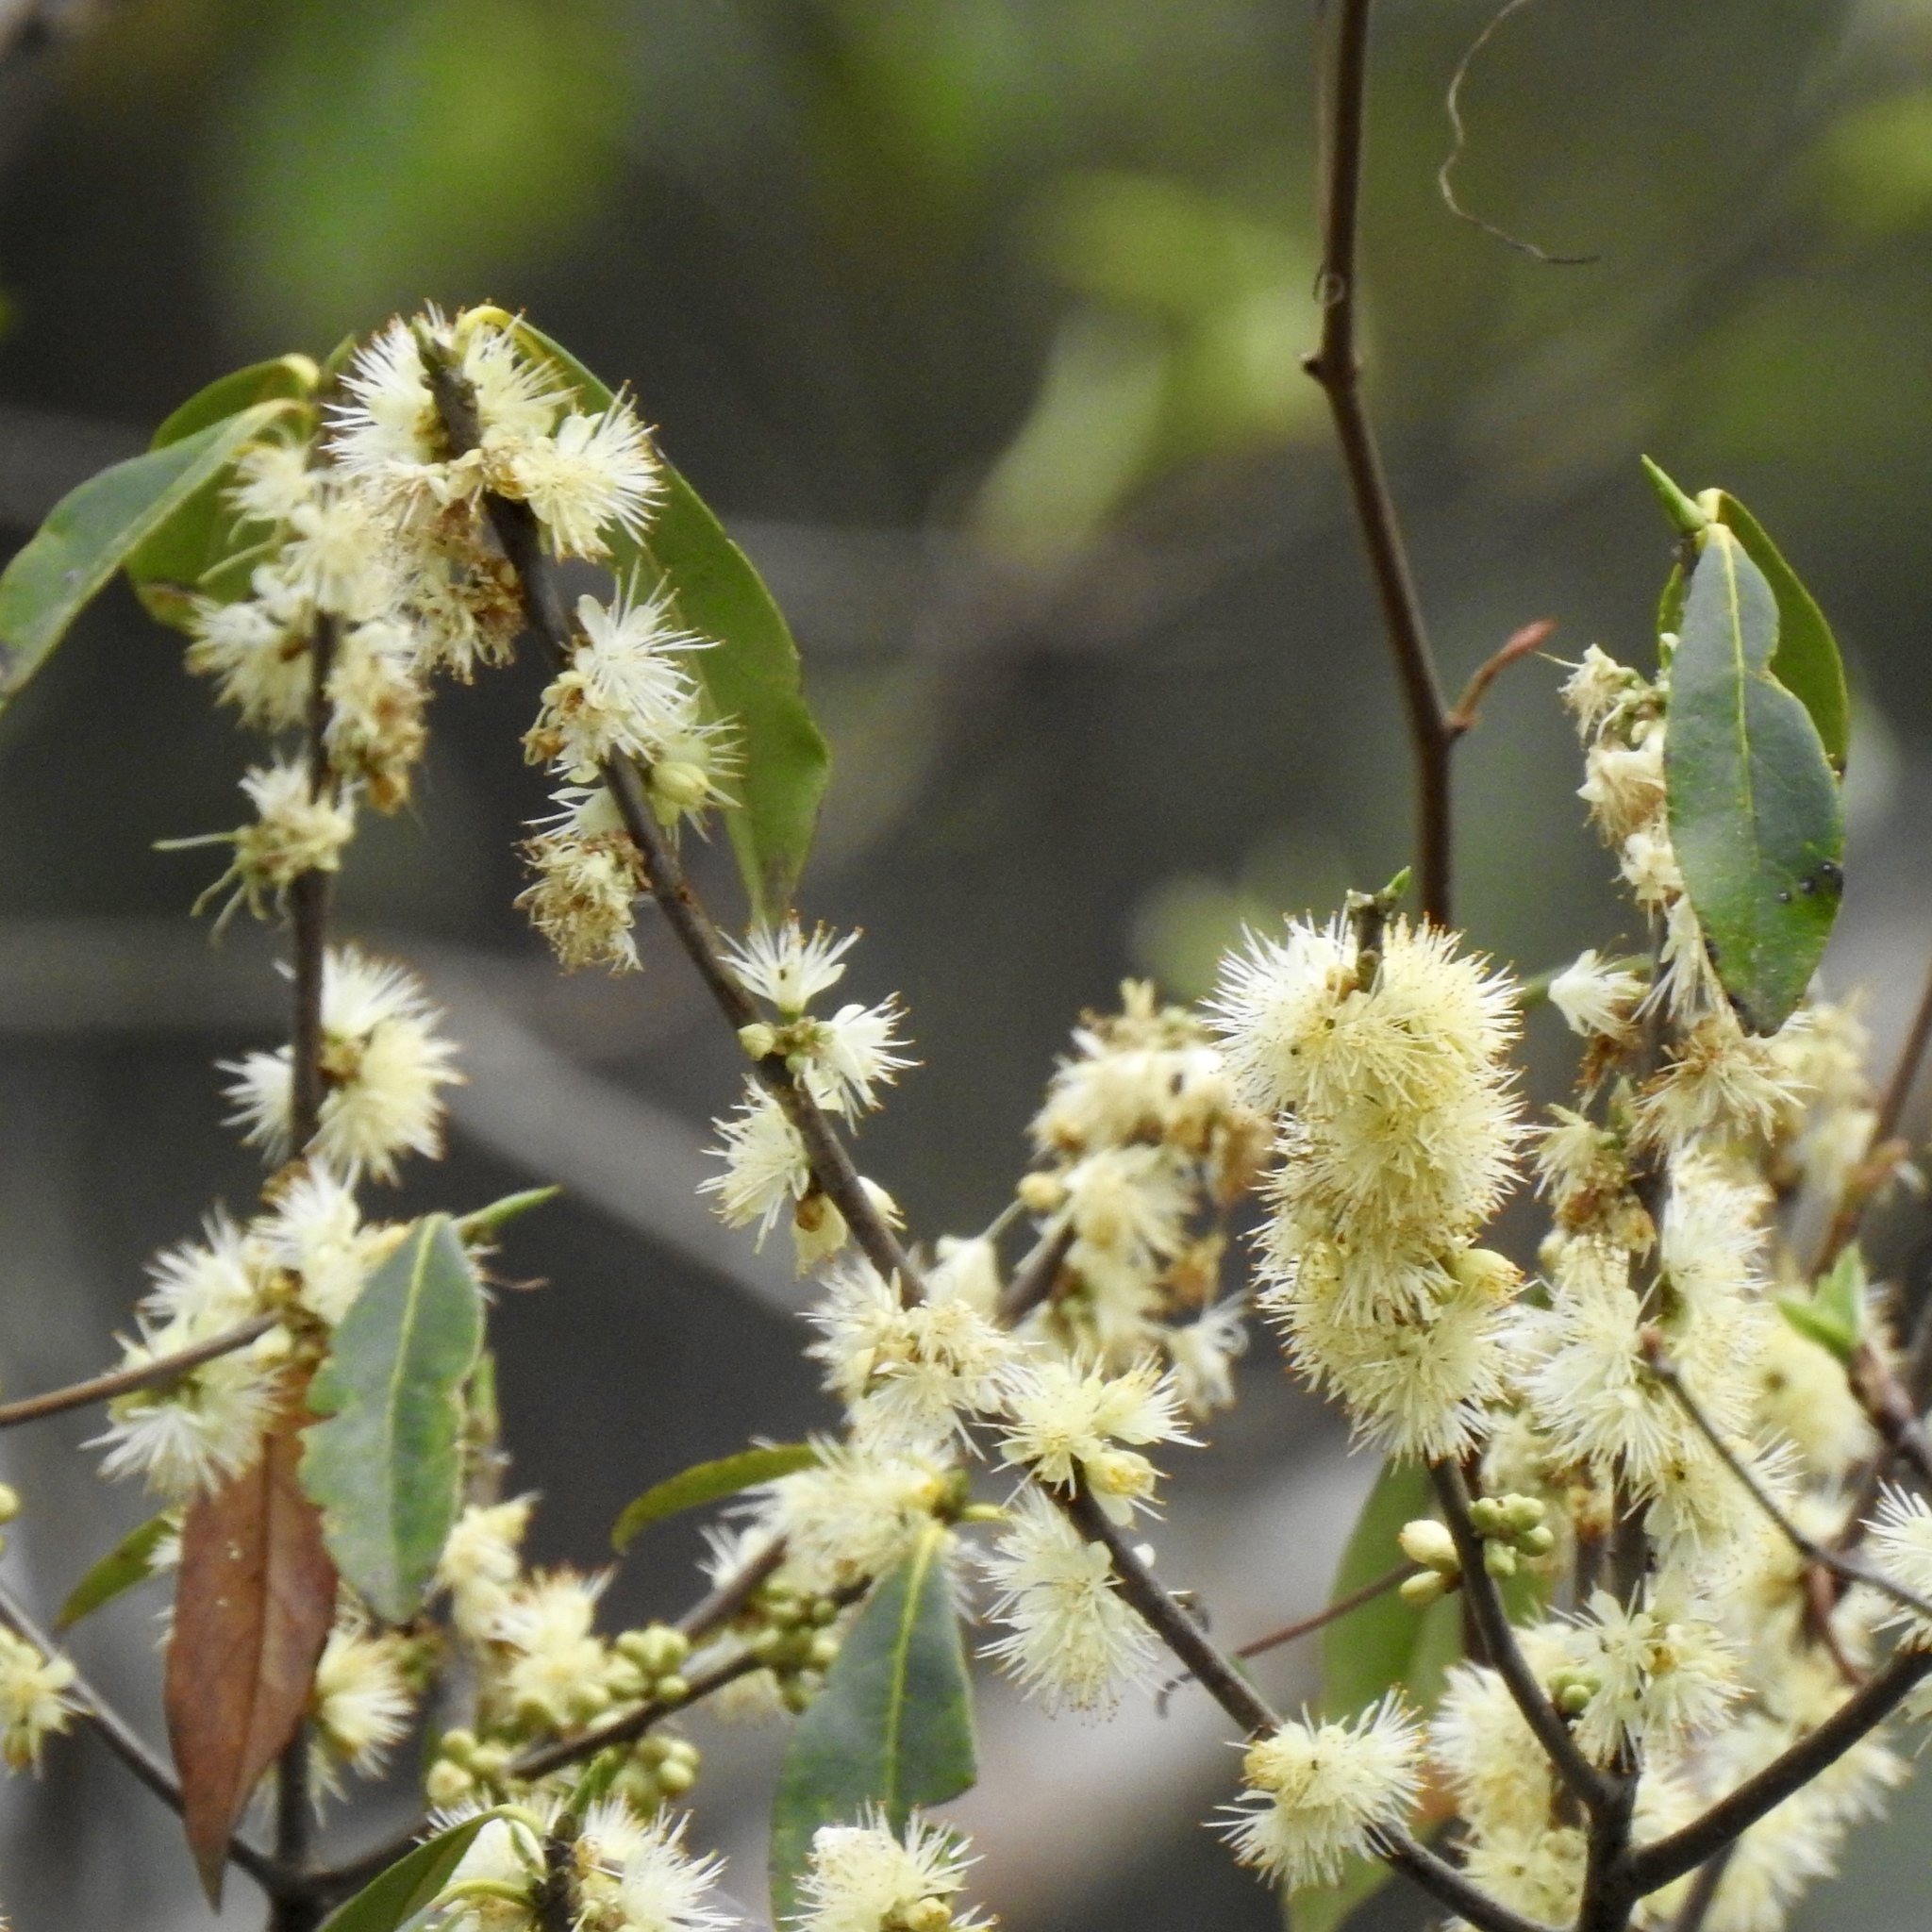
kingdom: Plantae
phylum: Tracheophyta
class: Magnoliopsida
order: Ericales
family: Symplocaceae
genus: Symplocos
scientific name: Symplocos tinctoria
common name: Horse-sugar
